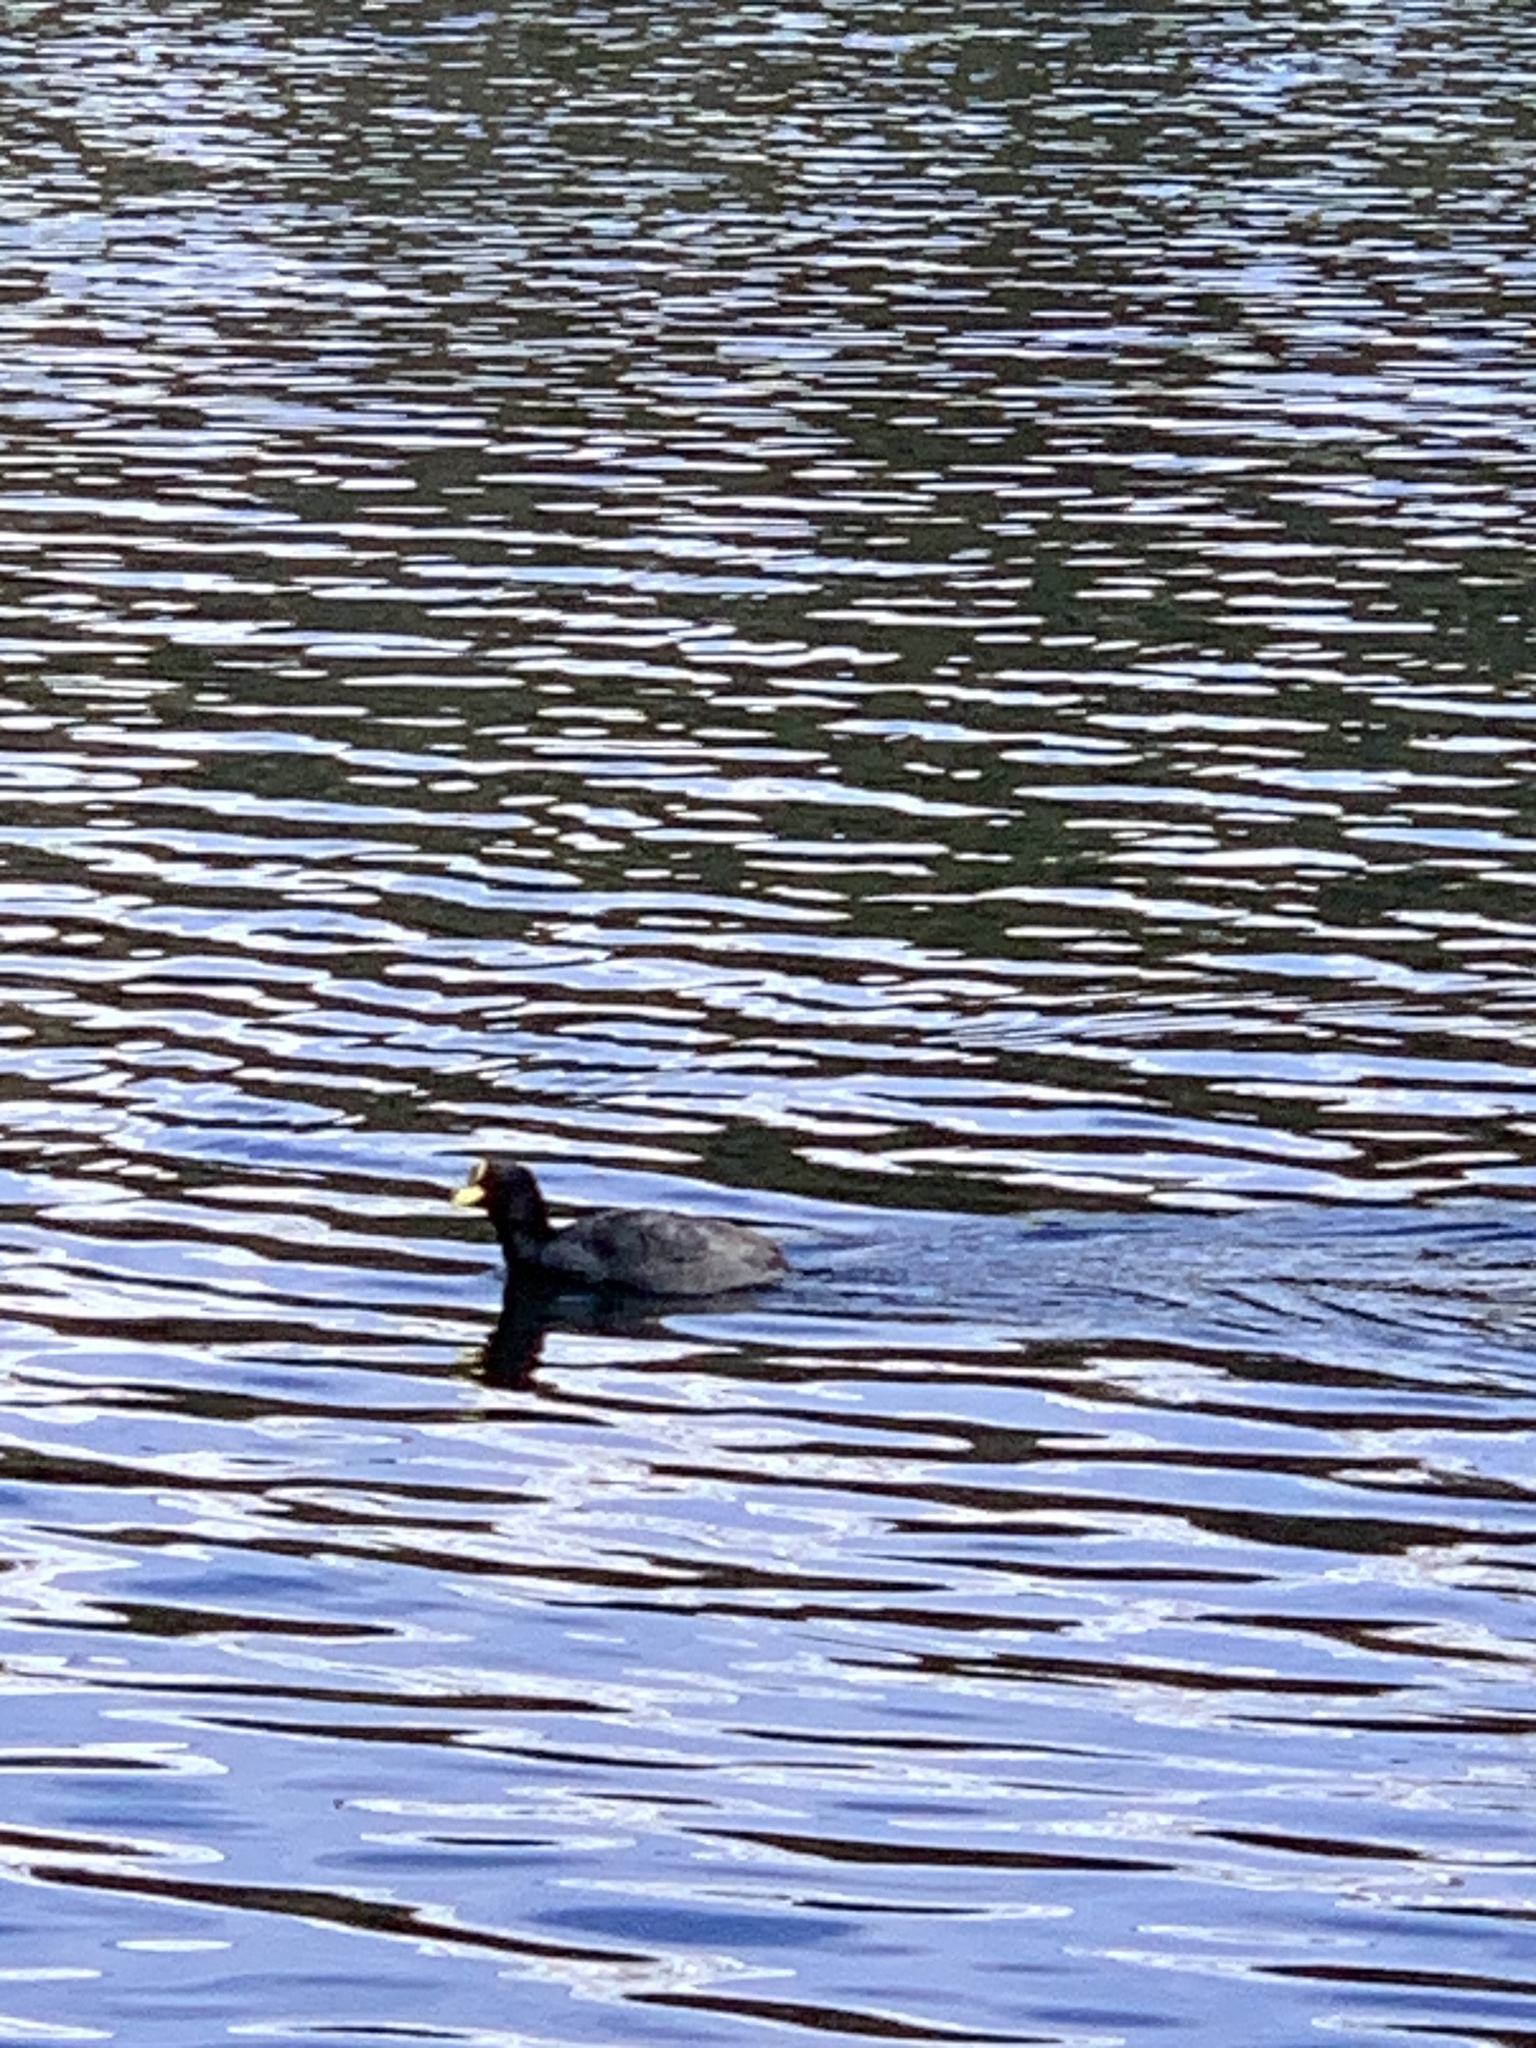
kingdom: Animalia
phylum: Chordata
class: Aves
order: Gruiformes
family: Rallidae
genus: Fulica
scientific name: Fulica armillata
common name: Red-gartered coot
